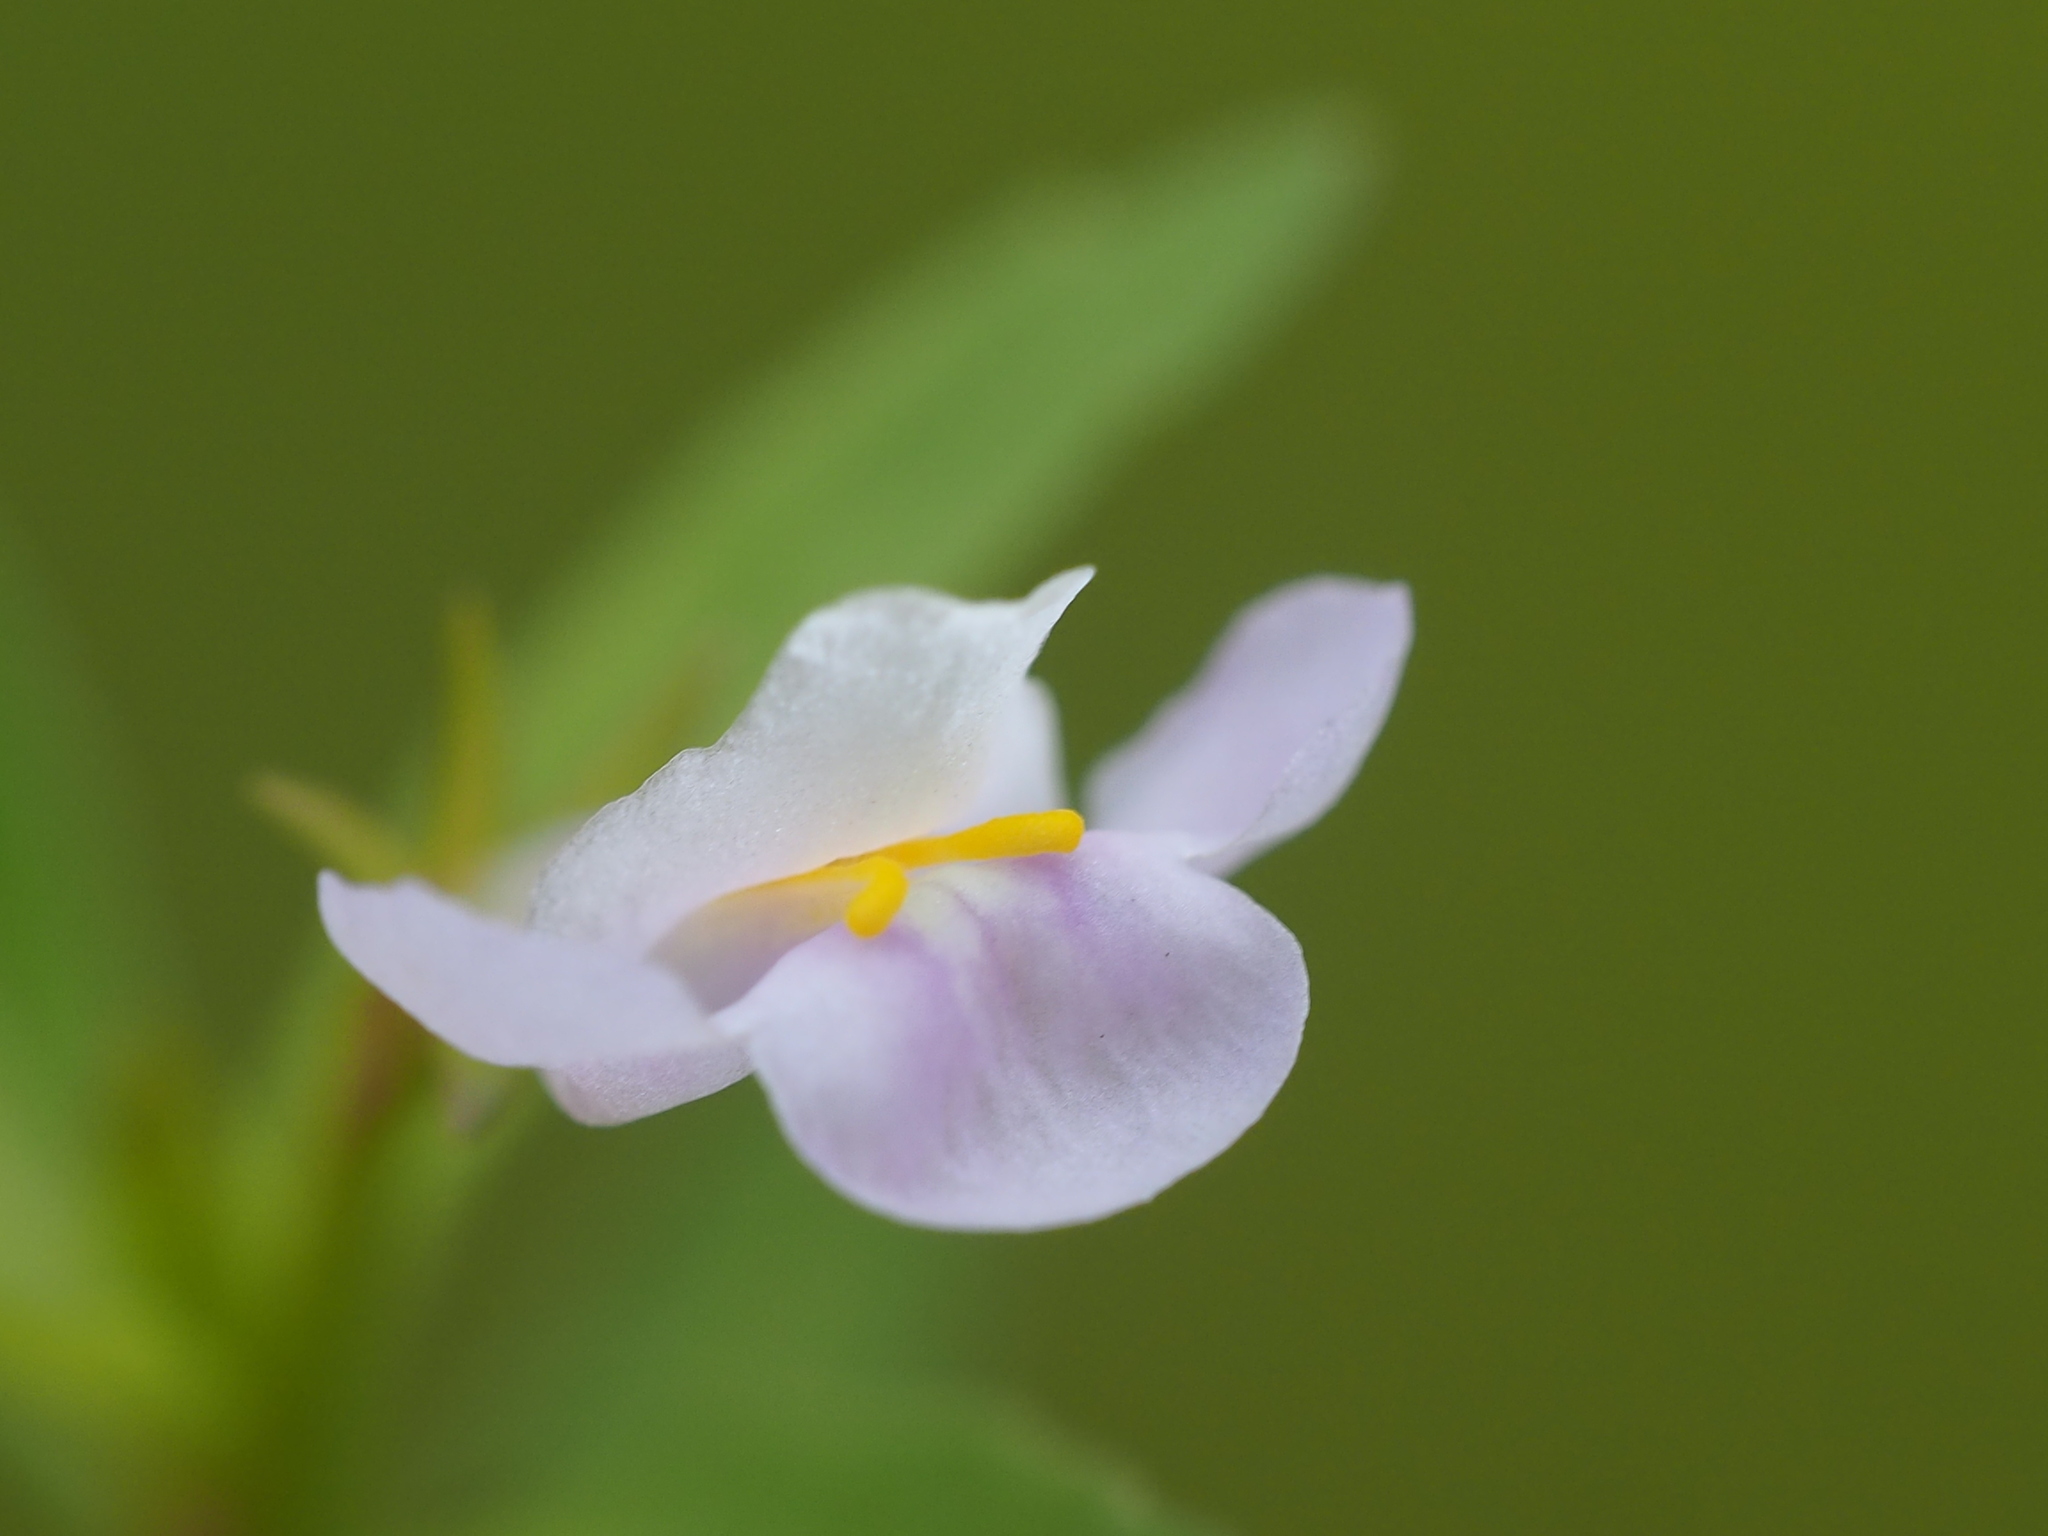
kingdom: Plantae
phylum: Tracheophyta
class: Magnoliopsida
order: Lamiales
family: Linderniaceae
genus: Bonnaya
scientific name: Bonnaya antipoda
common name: Sparrow false pimpernel
